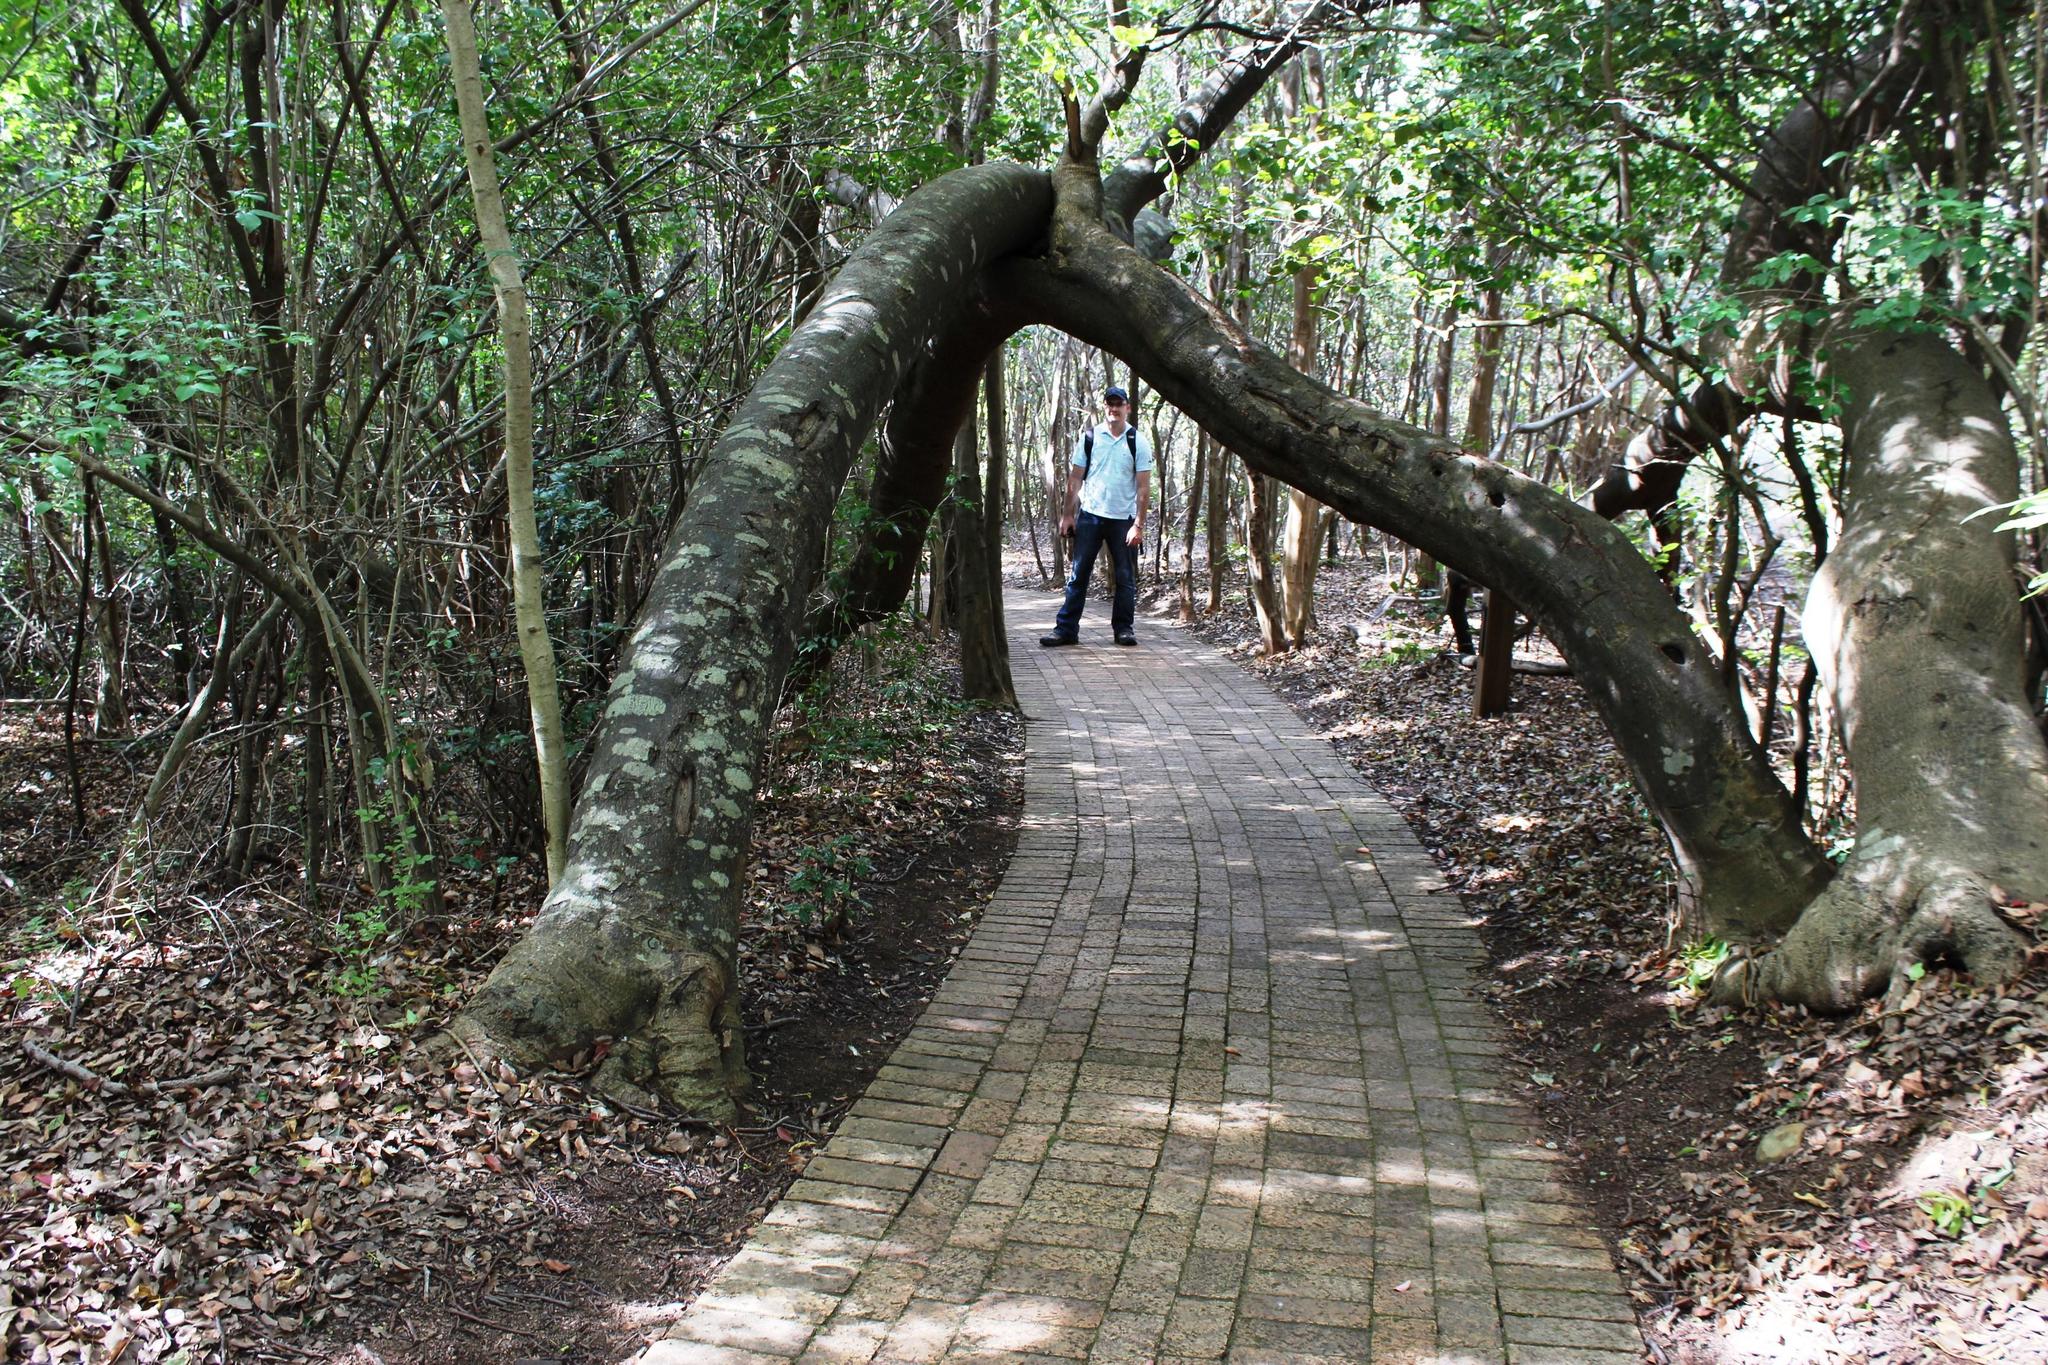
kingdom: Plantae
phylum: Tracheophyta
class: Magnoliopsida
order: Proteales
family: Proteaceae
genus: Brabejum
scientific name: Brabejum stellatifolium
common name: Wild almond
